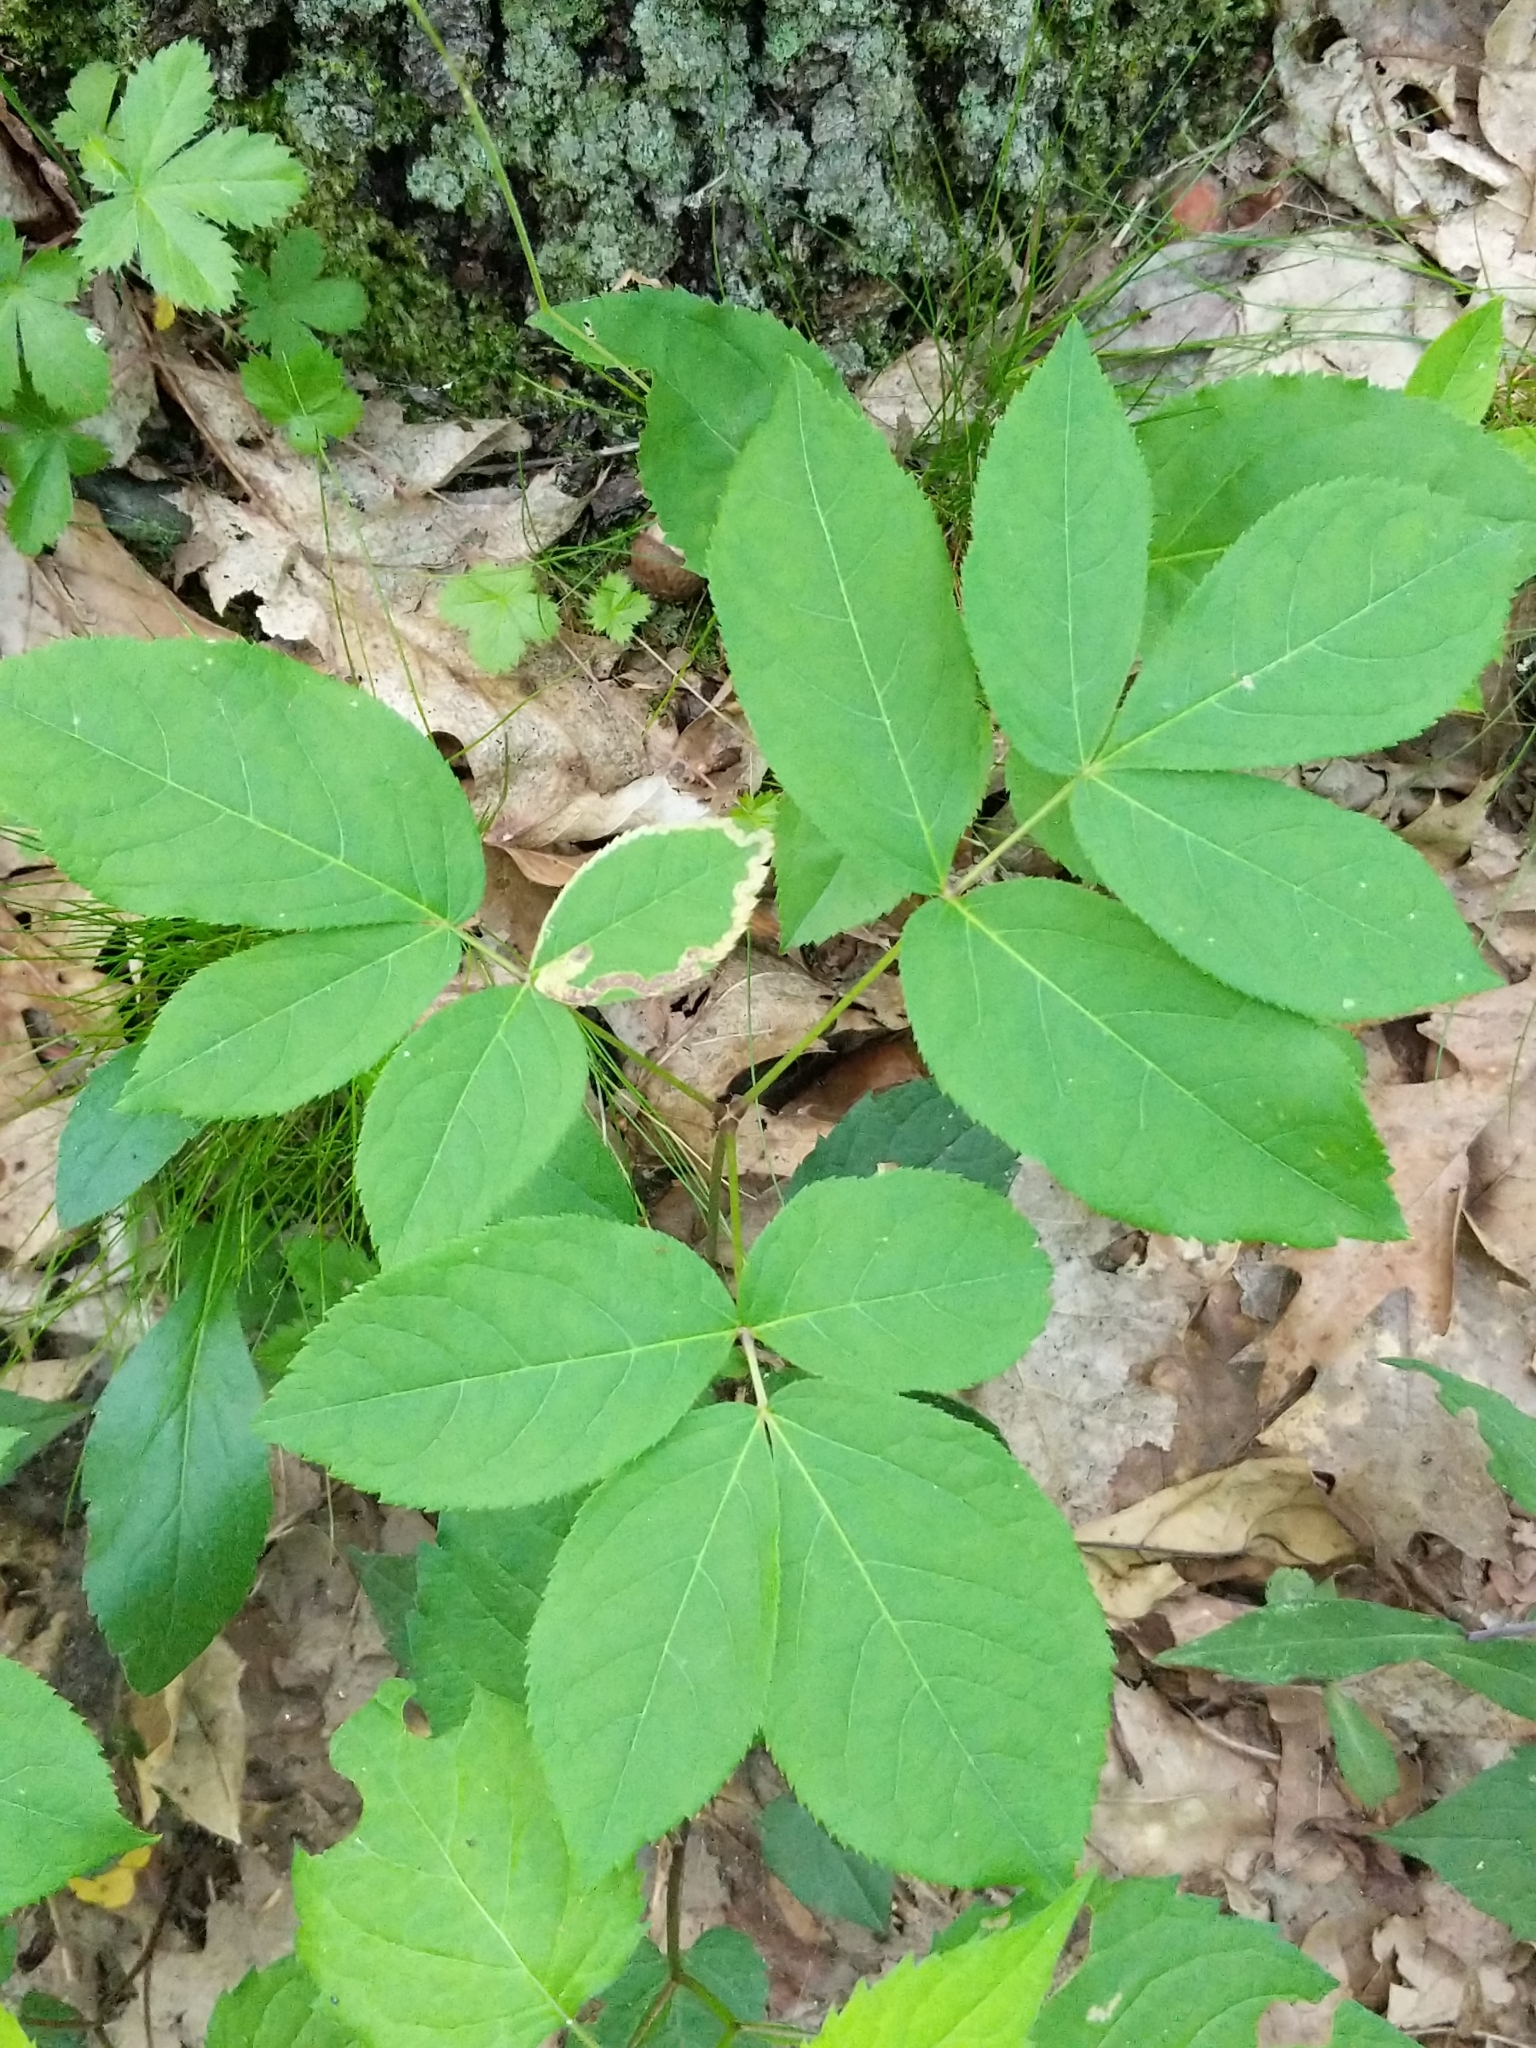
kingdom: Plantae
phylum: Tracheophyta
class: Magnoliopsida
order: Apiales
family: Araliaceae
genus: Aralia
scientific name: Aralia nudicaulis
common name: Wild sarsaparilla
